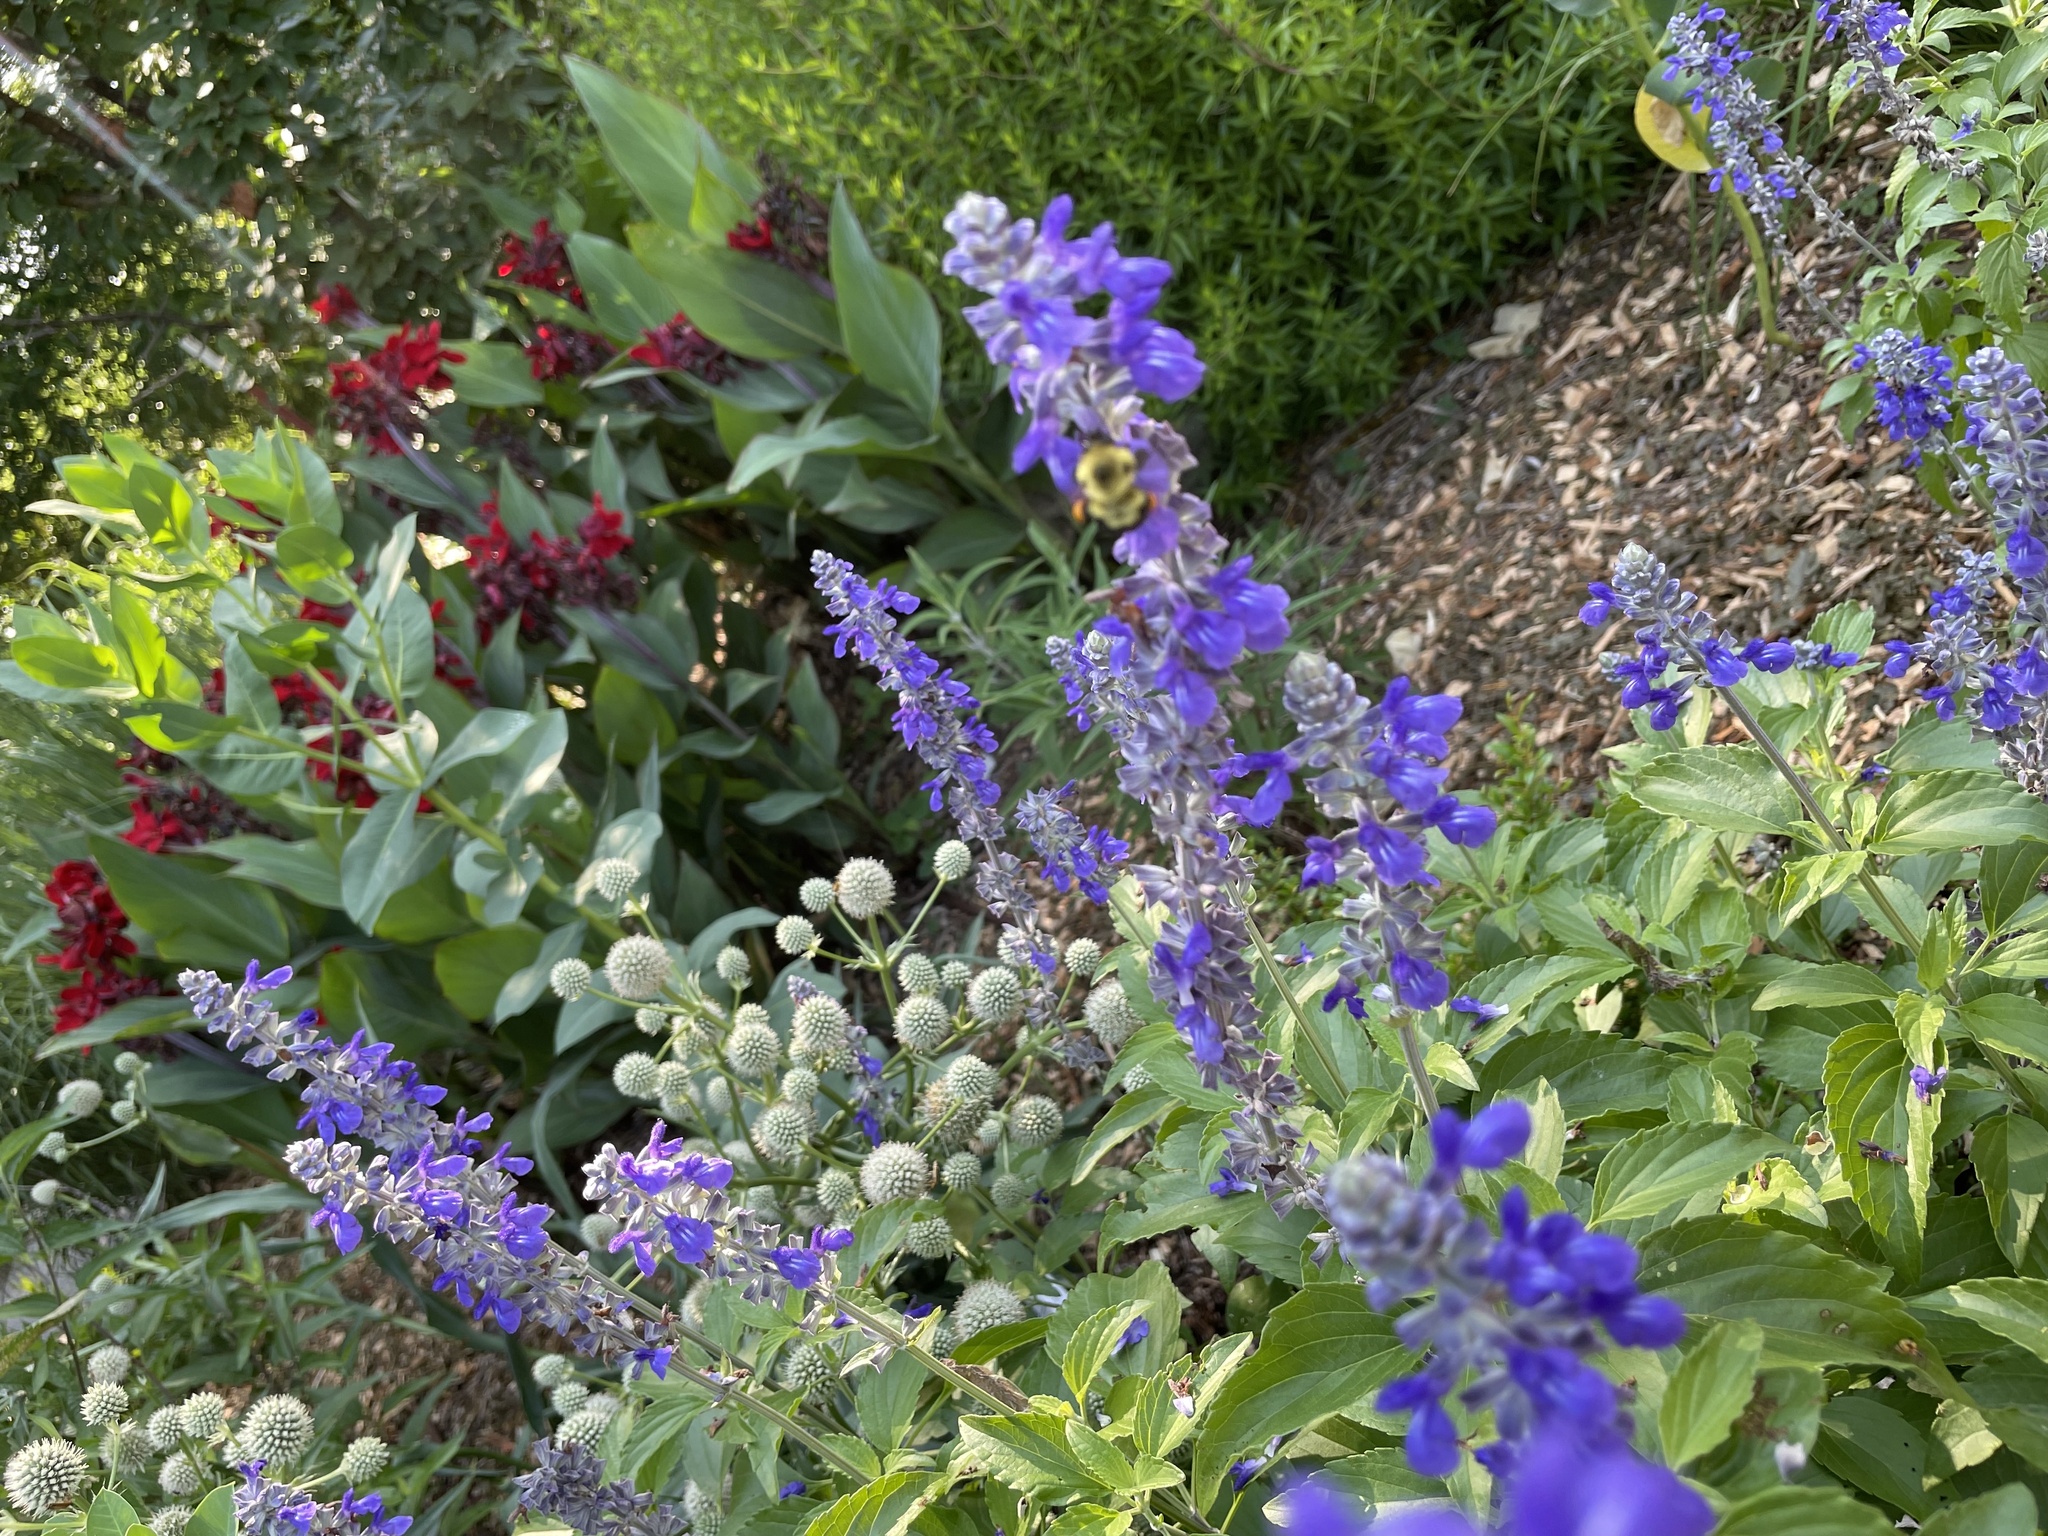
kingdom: Animalia
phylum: Arthropoda
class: Insecta
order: Hymenoptera
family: Apidae
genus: Bombus
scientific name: Bombus bimaculatus
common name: Two-spotted bumble bee
